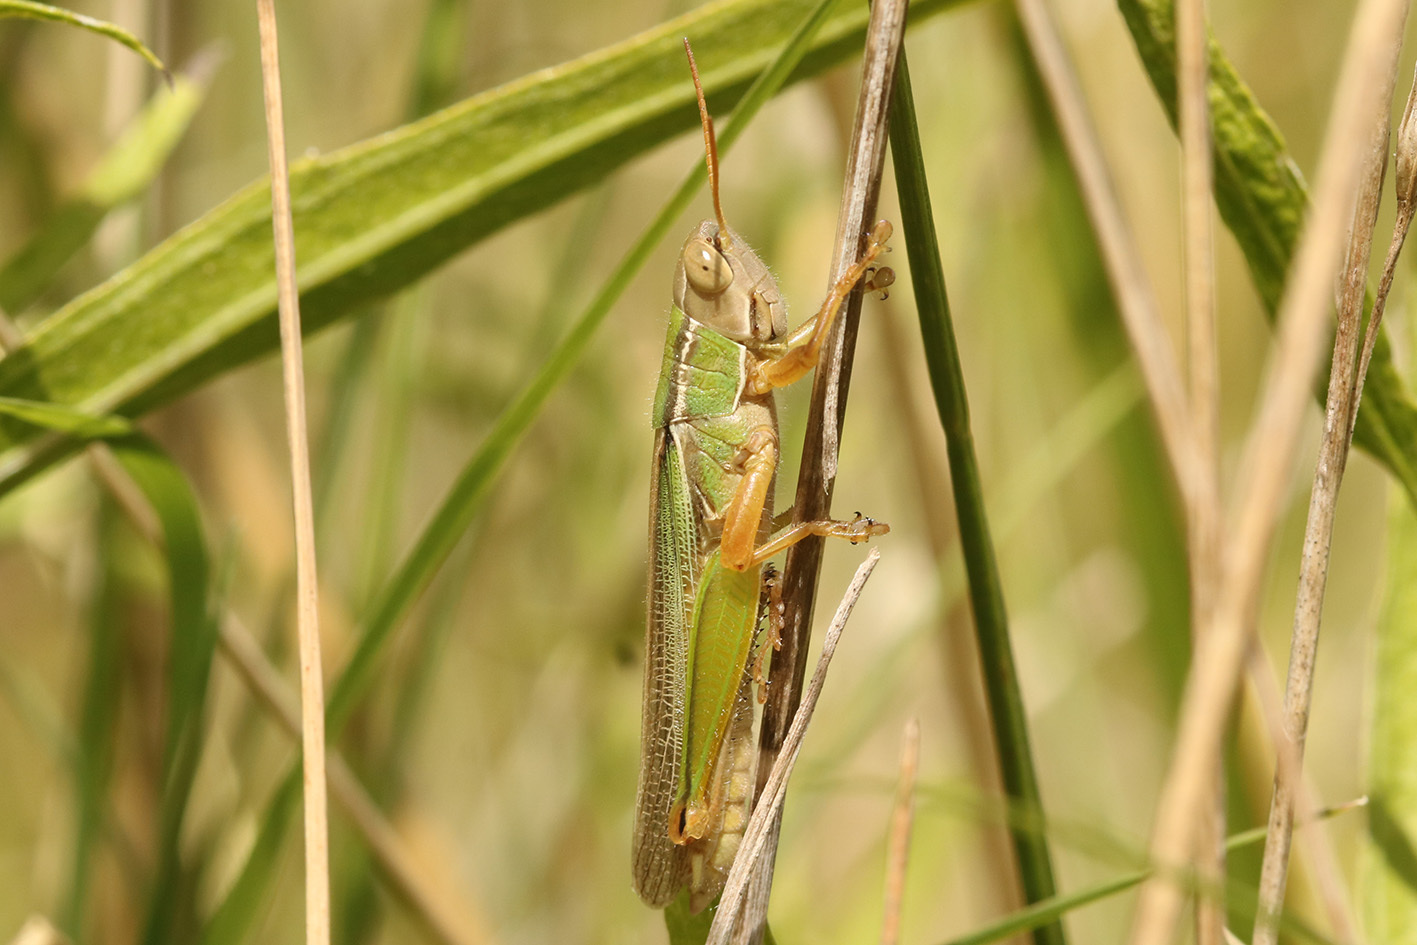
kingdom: Animalia
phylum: Arthropoda
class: Insecta
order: Orthoptera
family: Acrididae
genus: Aleuas
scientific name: Aleuas lineatus
